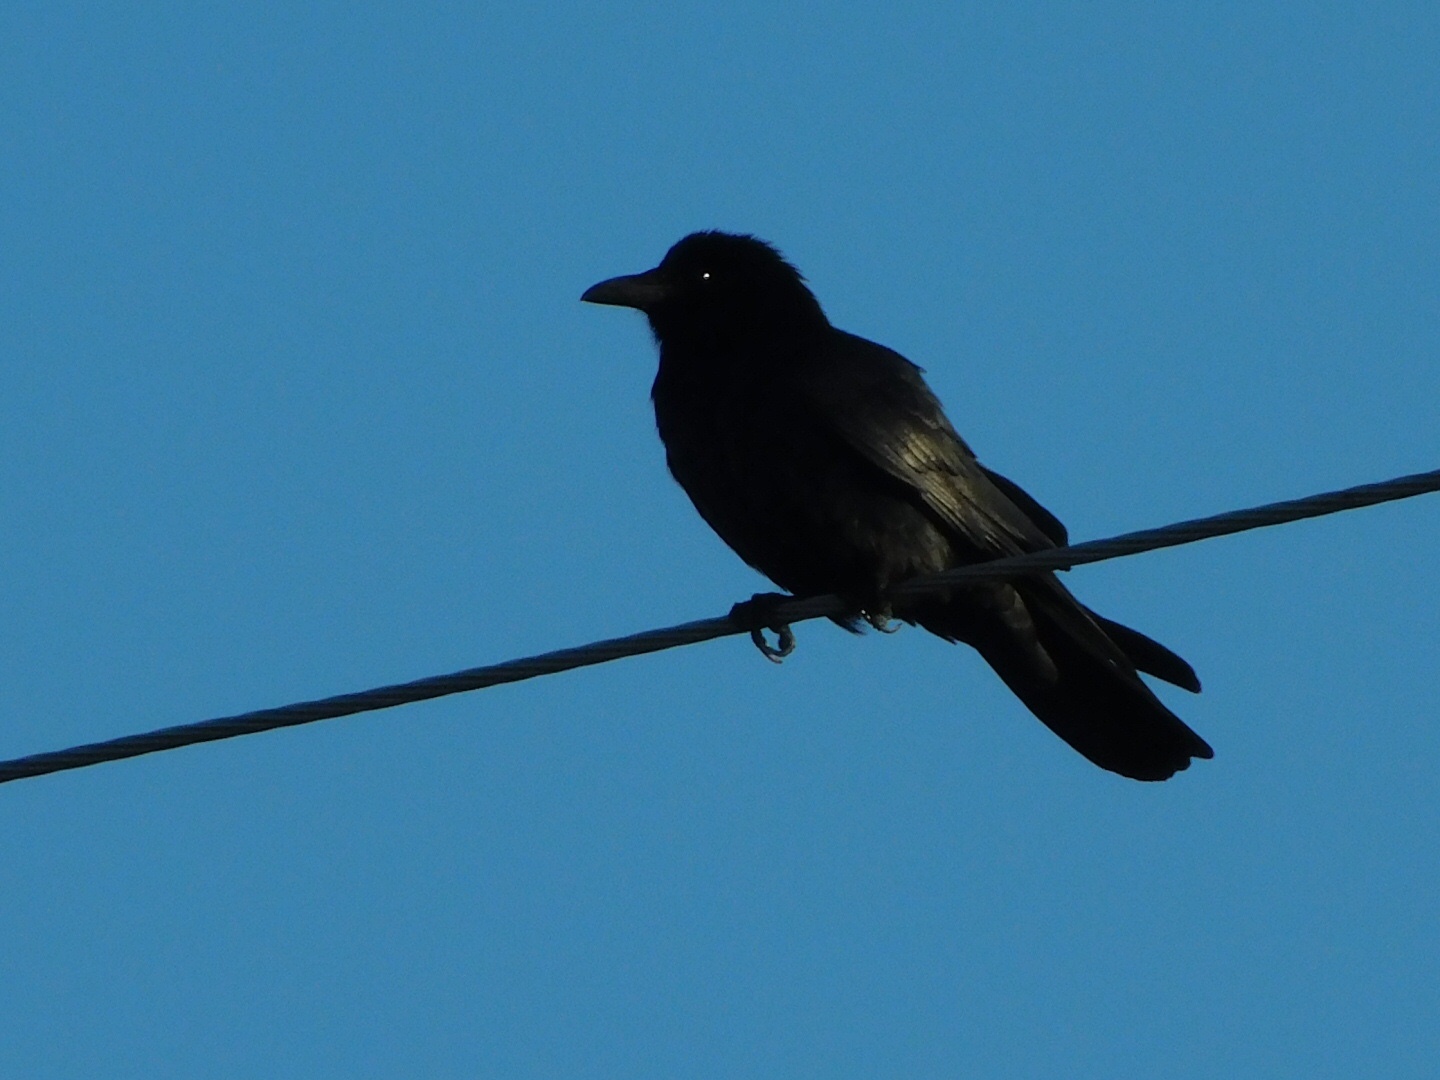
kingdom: Animalia
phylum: Chordata
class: Aves
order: Passeriformes
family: Corvidae
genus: Corvus
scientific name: Corvus ossifragus
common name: Fish crow
